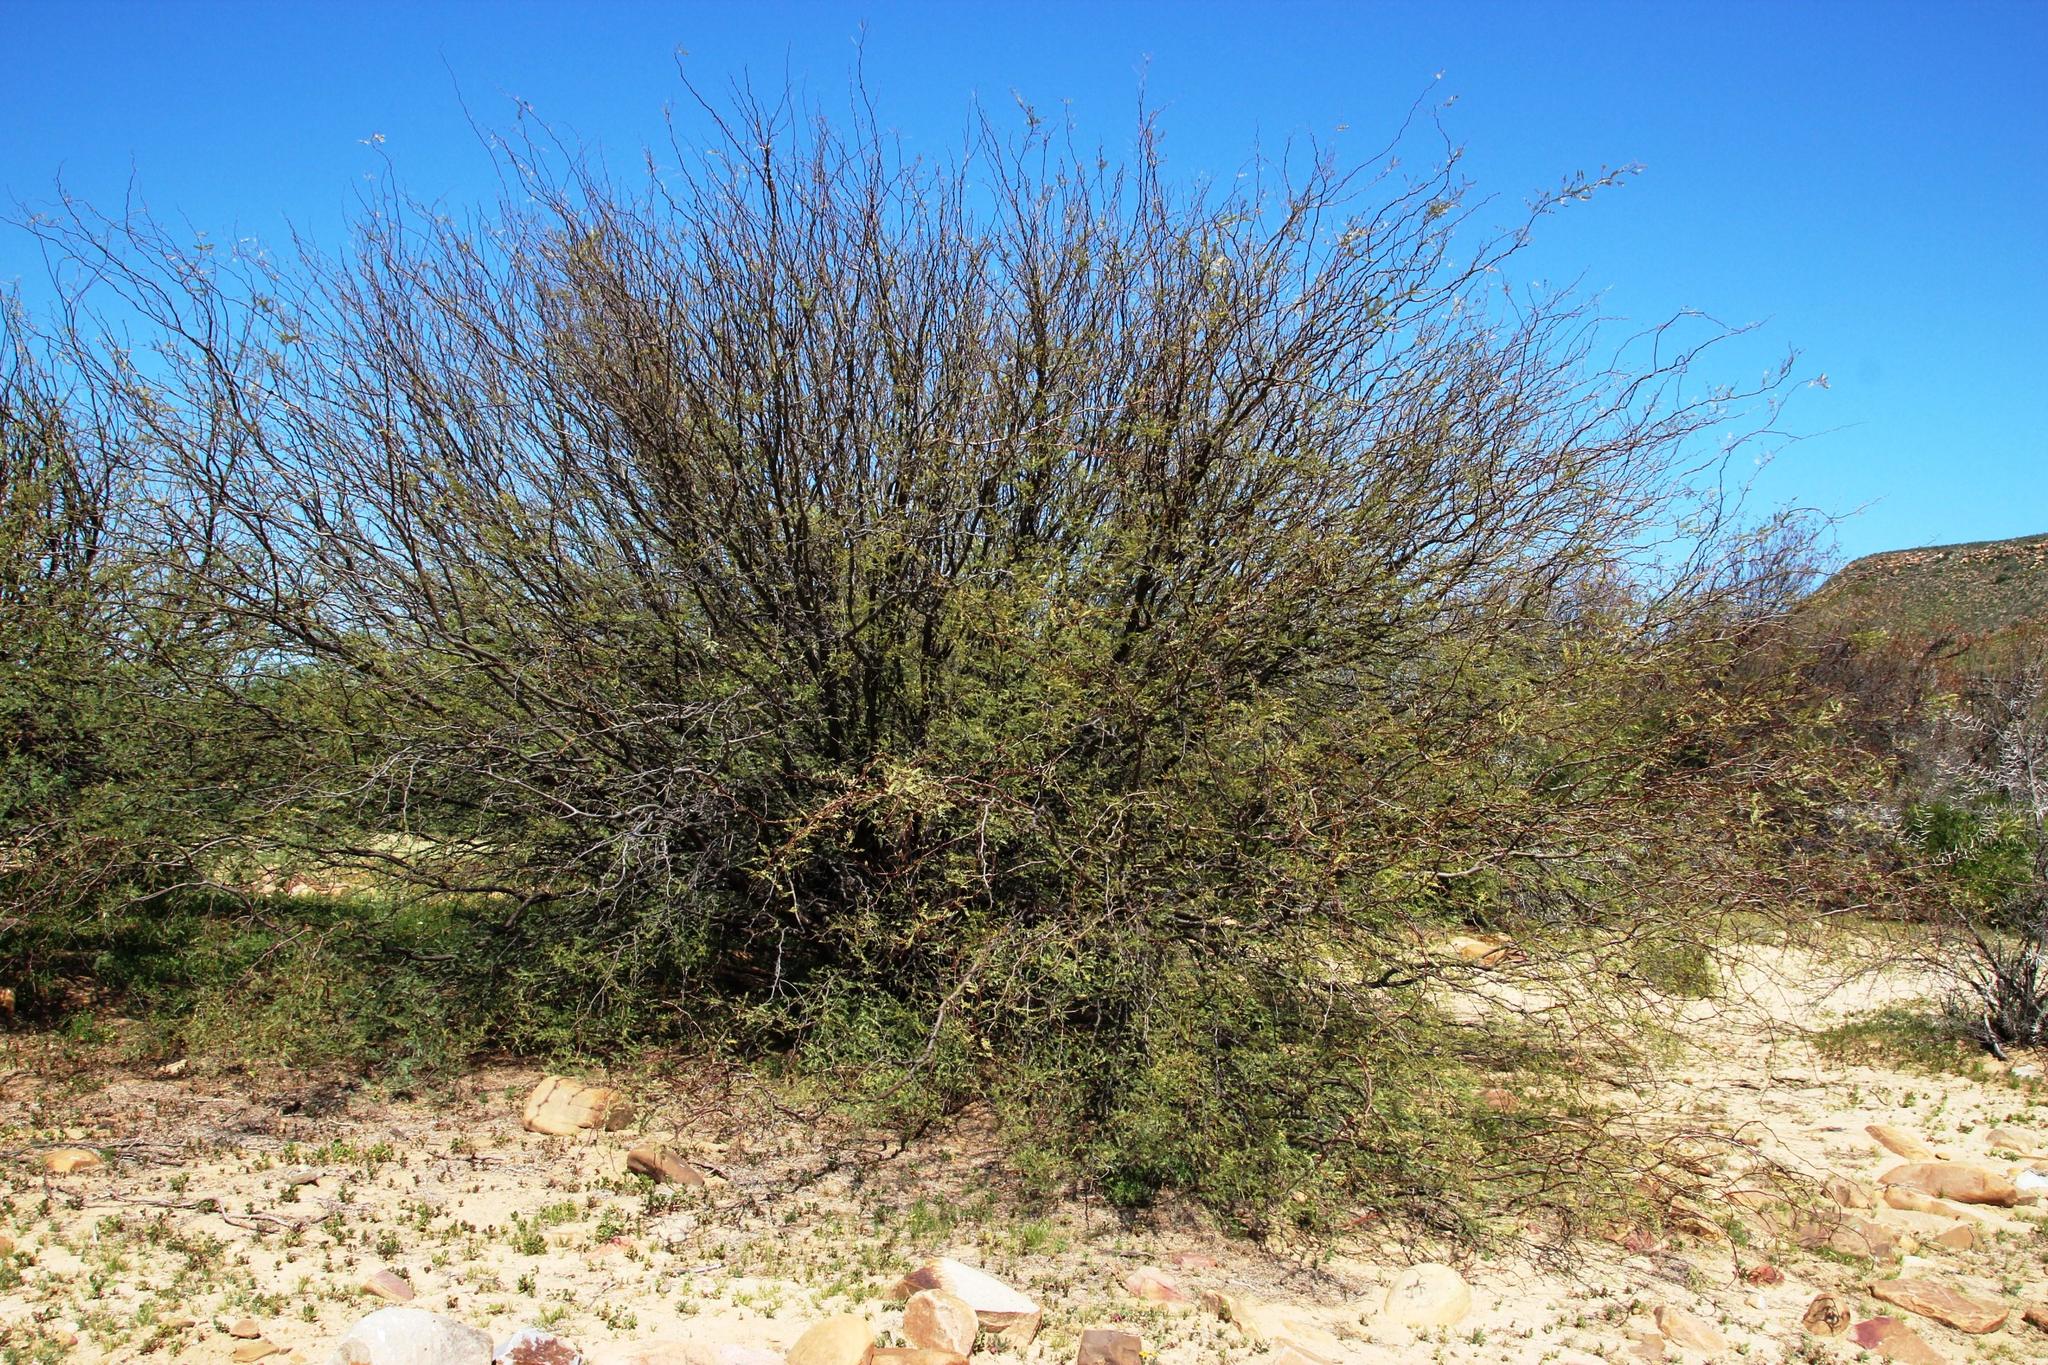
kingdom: Plantae
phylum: Tracheophyta
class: Magnoliopsida
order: Fabales
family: Fabaceae
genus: Prosopis
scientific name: Prosopis glandulosa
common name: Honey mesquite
